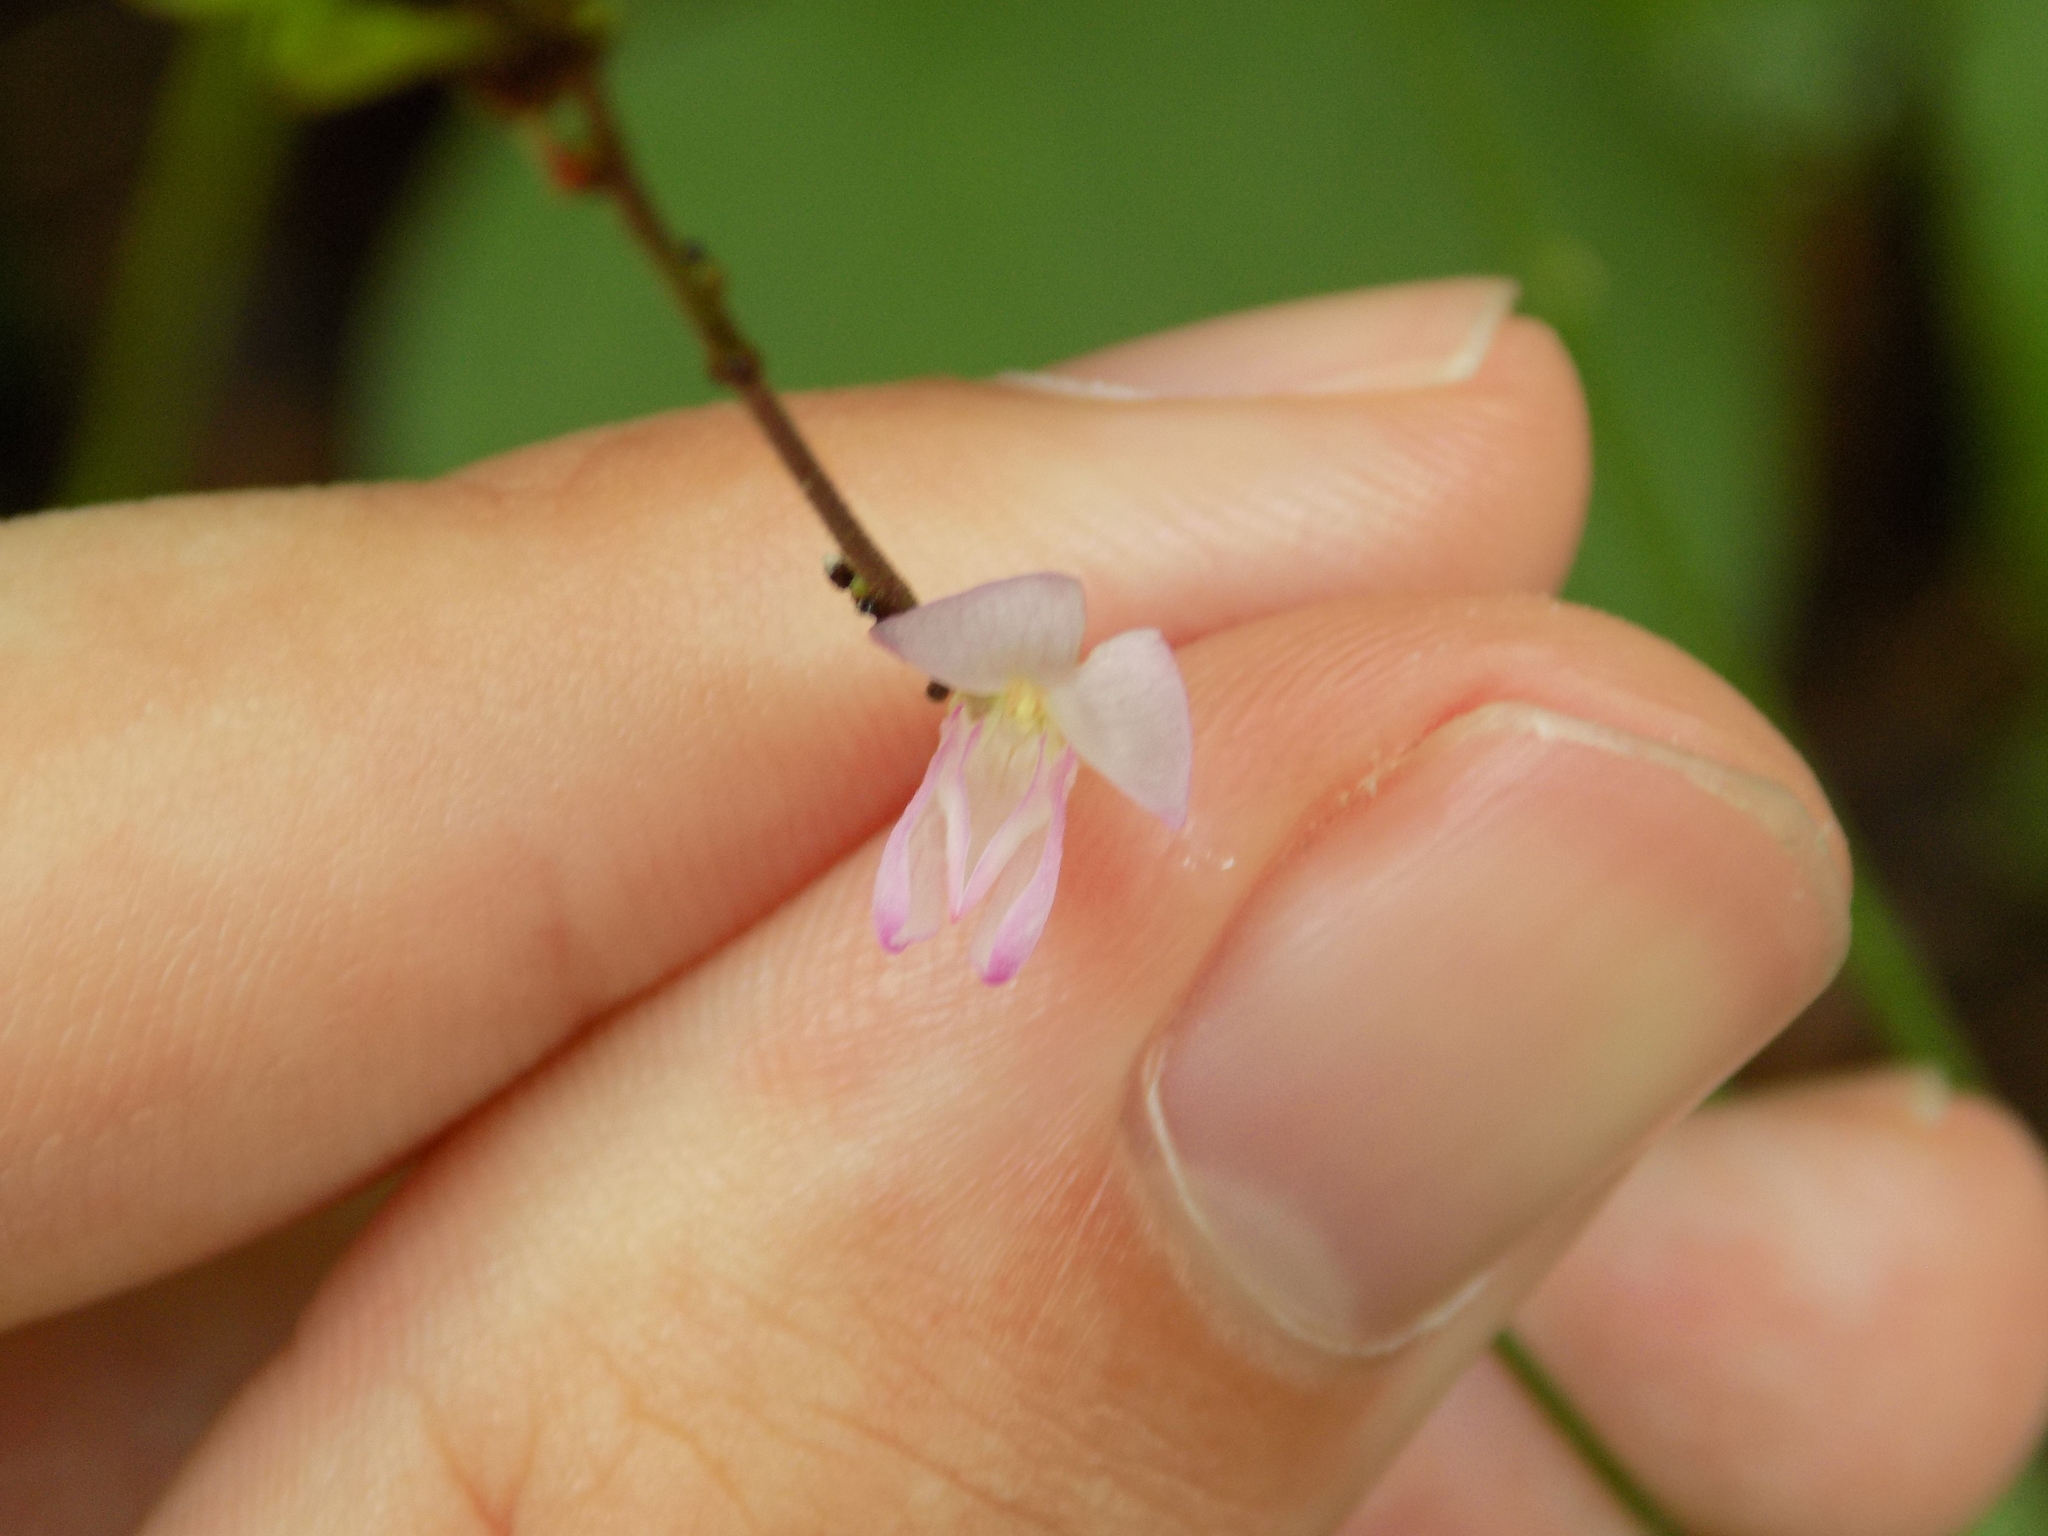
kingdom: Plantae
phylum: Tracheophyta
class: Magnoliopsida
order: Fabales
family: Fabaceae
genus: Hylodesmum
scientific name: Hylodesmum glutinosum
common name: Clustered-leaved tick-trefoil
